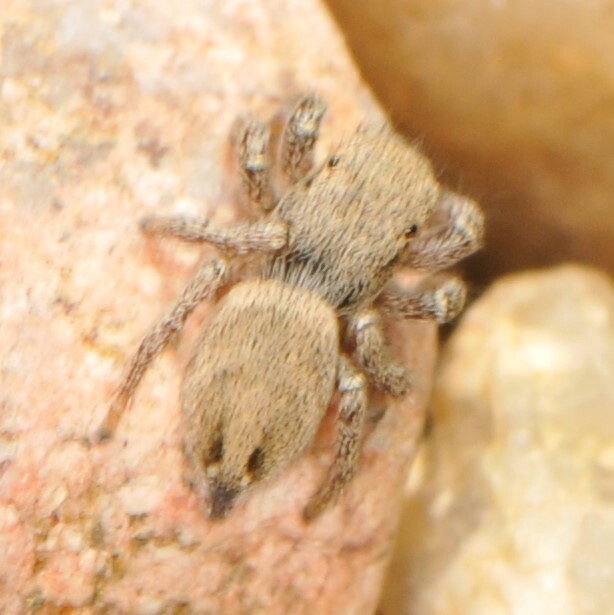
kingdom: Animalia
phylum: Arthropoda
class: Arachnida
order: Araneae
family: Salticidae
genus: Habronattus
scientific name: Habronattus
